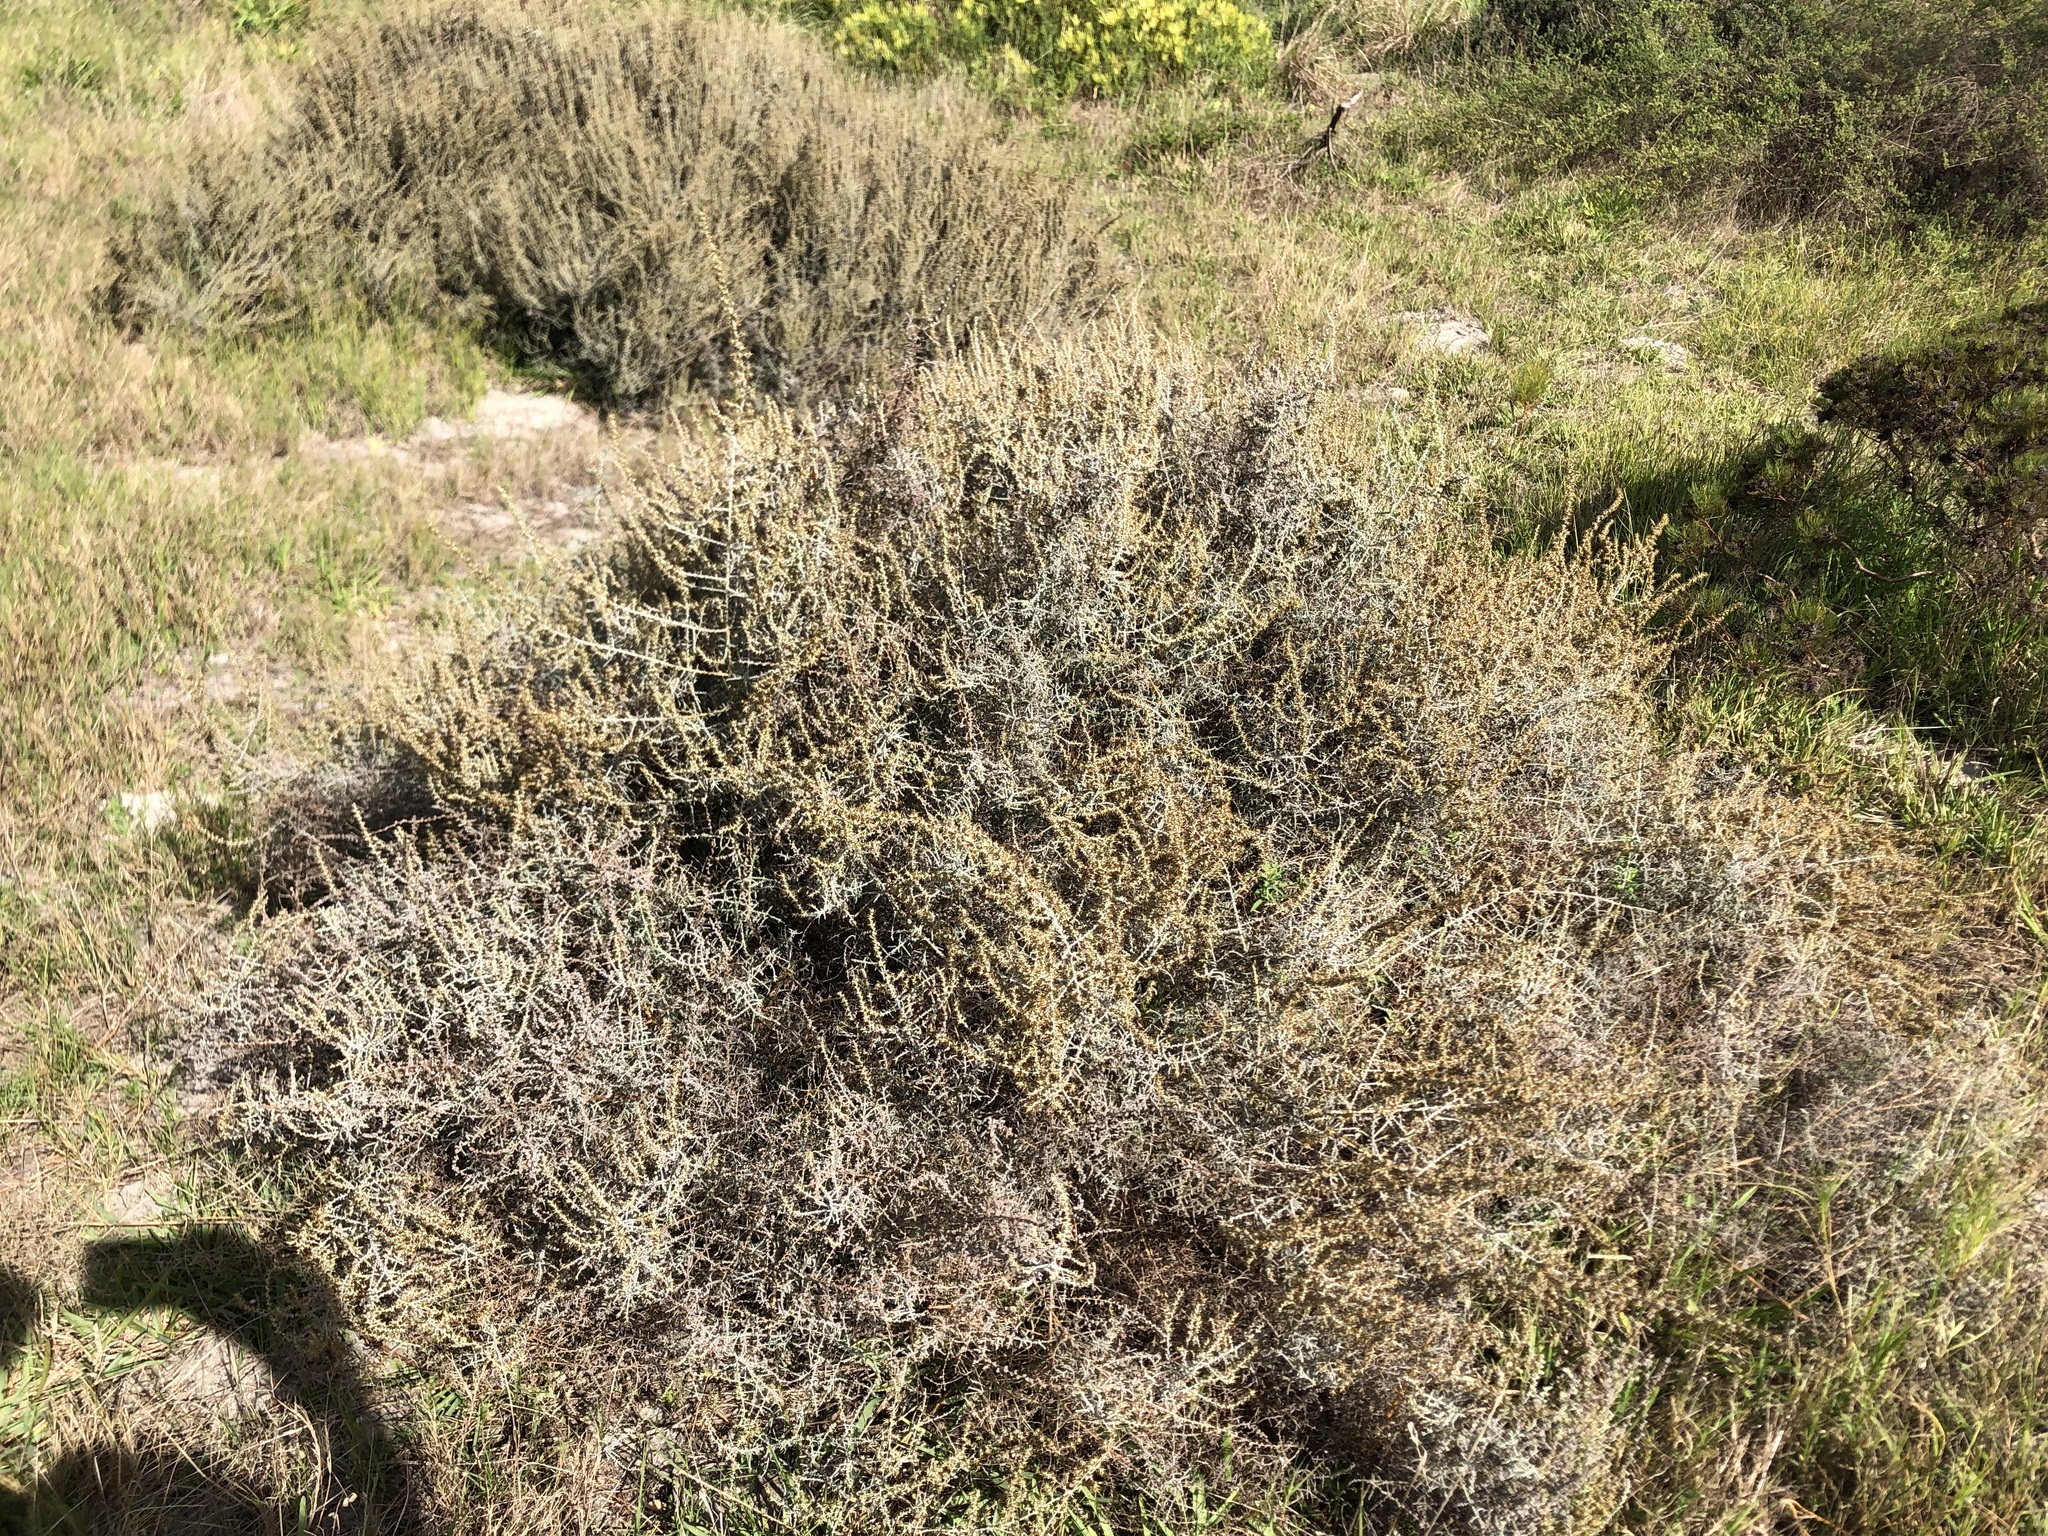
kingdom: Plantae
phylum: Tracheophyta
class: Magnoliopsida
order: Asterales
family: Asteraceae
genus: Seriphium
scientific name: Seriphium plumosum
